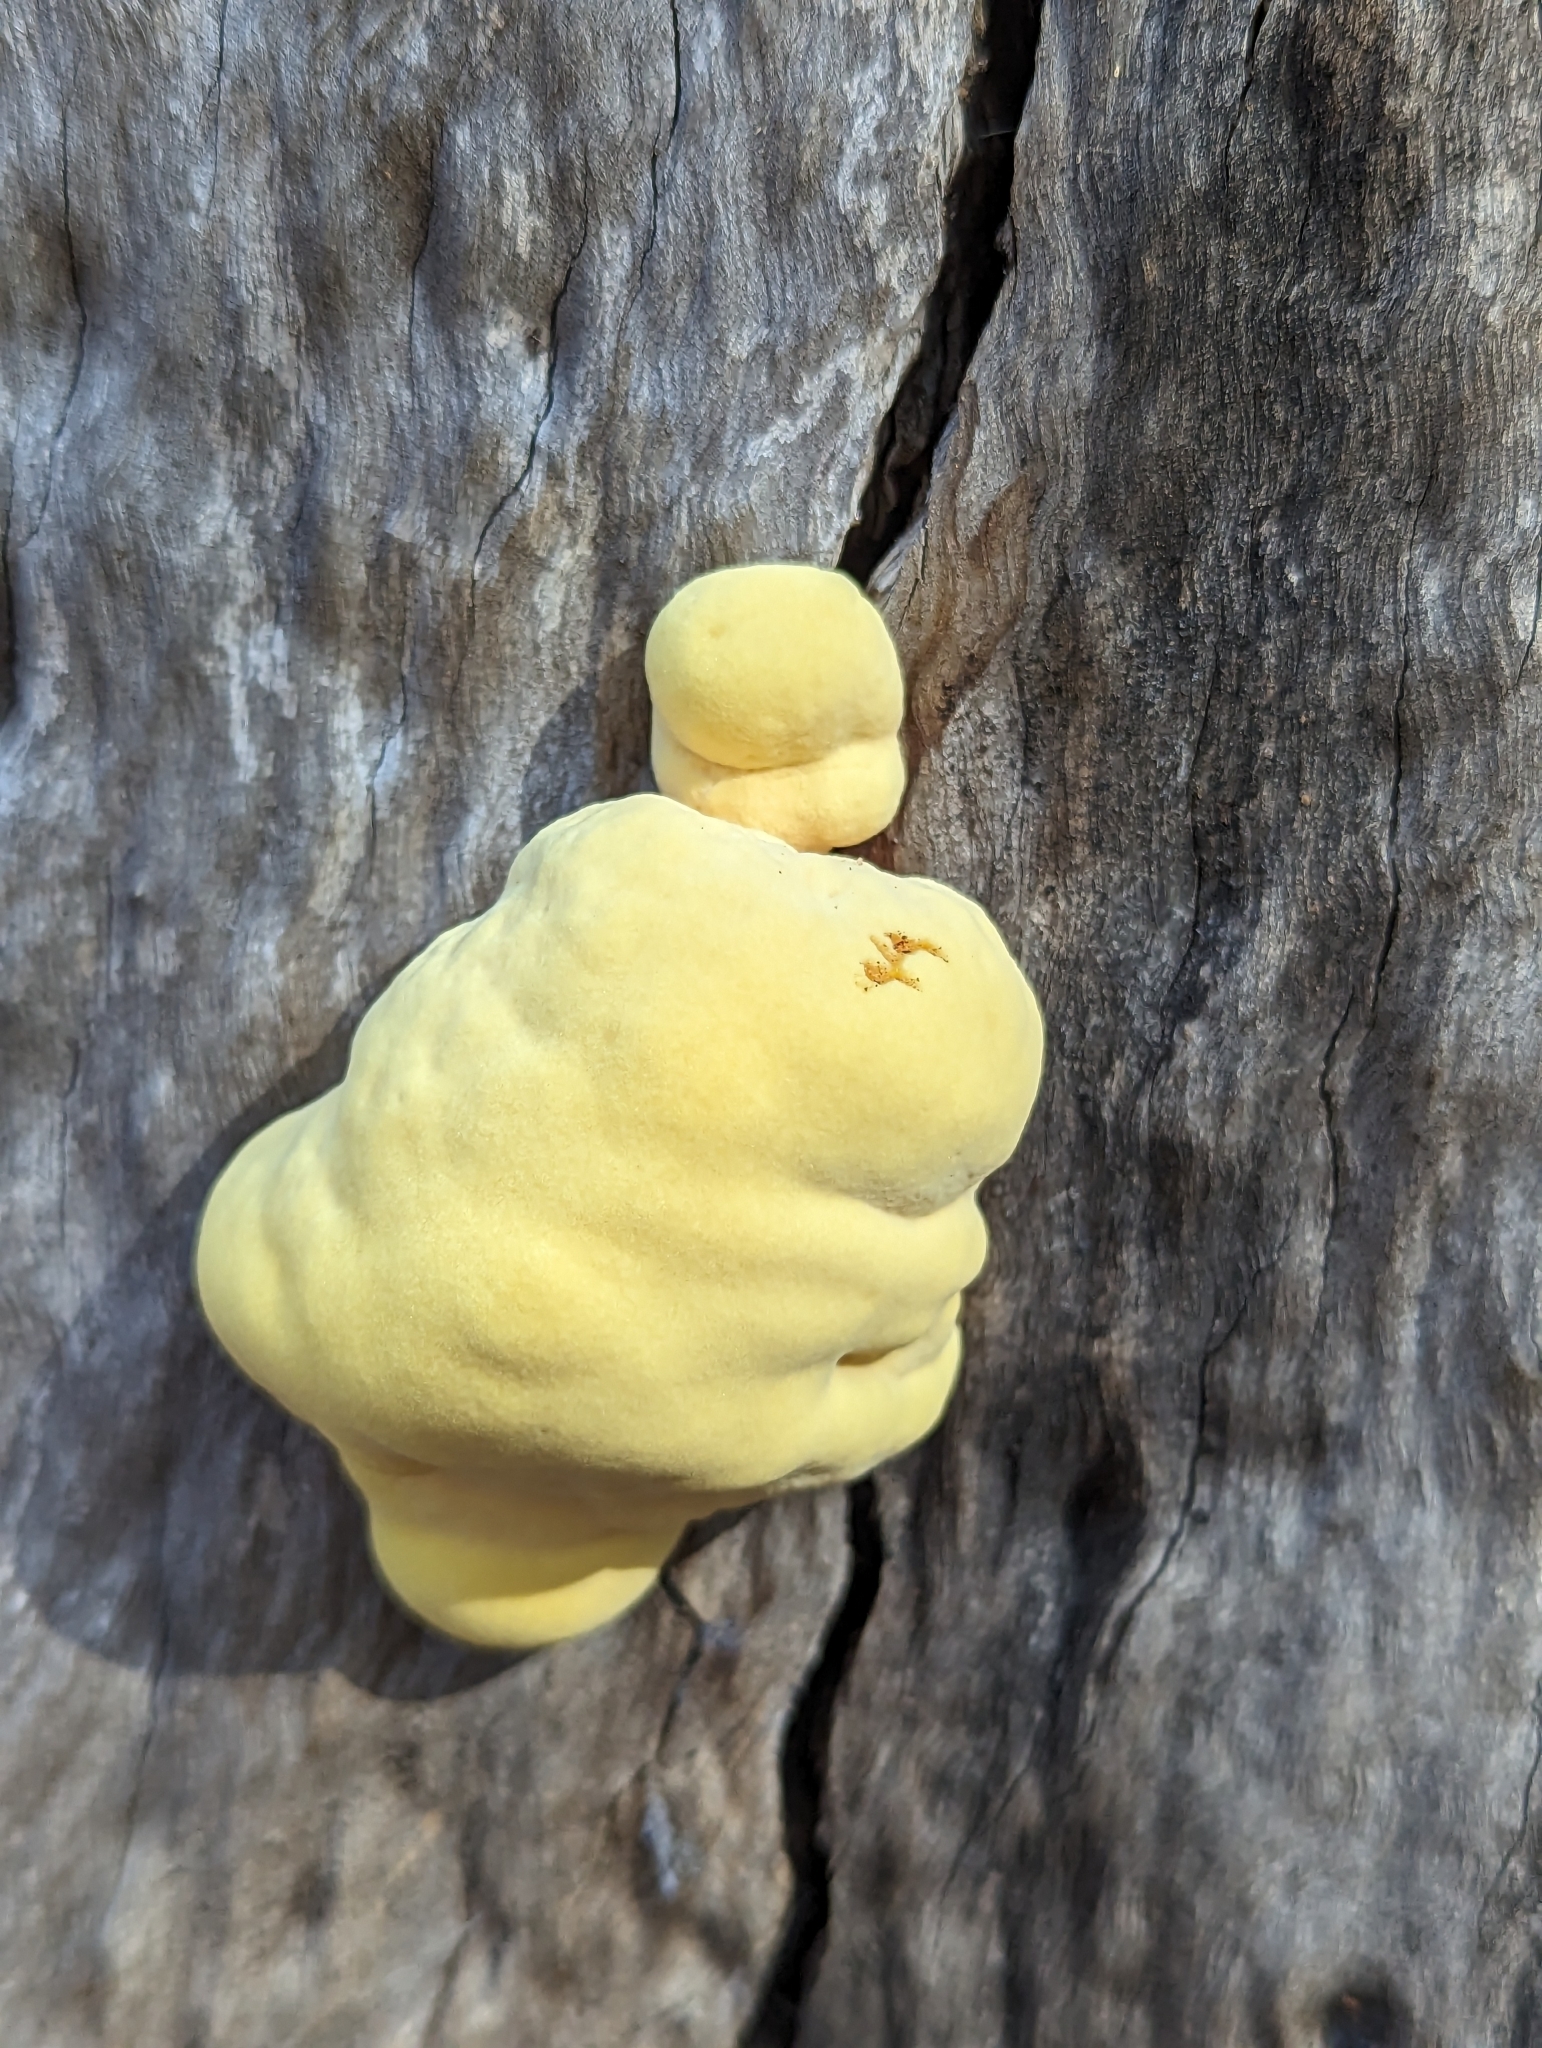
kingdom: Fungi
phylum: Basidiomycota
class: Agaricomycetes
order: Polyporales
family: Laetiporaceae
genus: Laetiporus
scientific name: Laetiporus gilbertsonii
